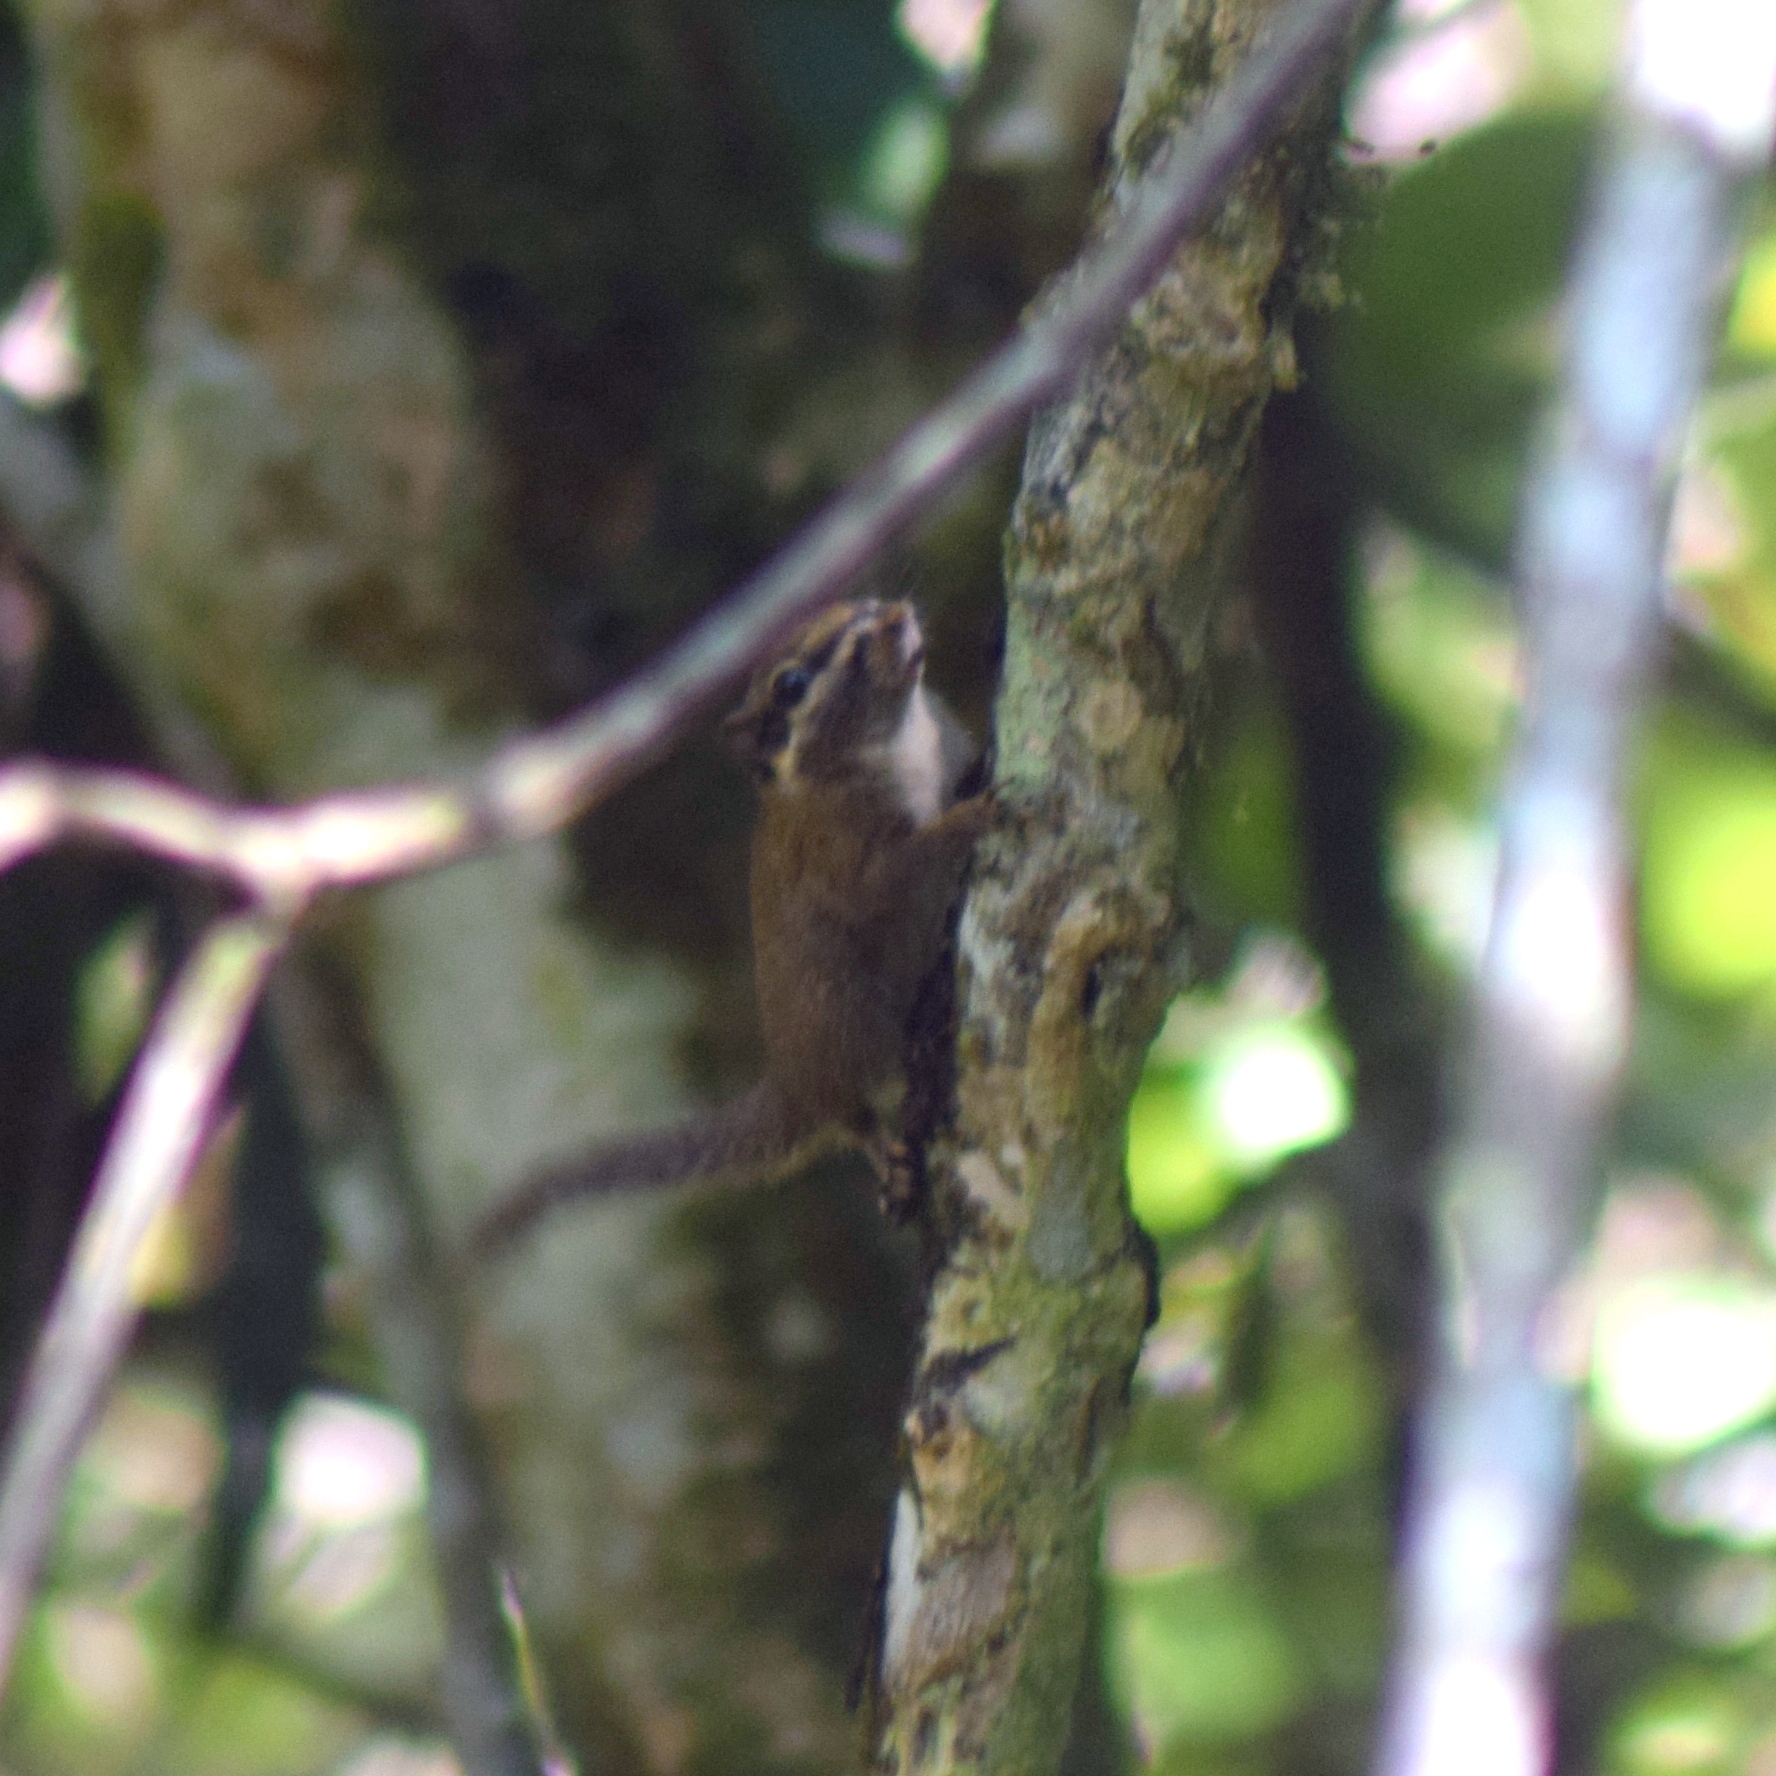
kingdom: Animalia
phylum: Chordata
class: Mammalia
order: Rodentia
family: Sciuridae
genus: Nannosciurus
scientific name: Nannosciurus melanotis
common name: Black-eared squirrel
